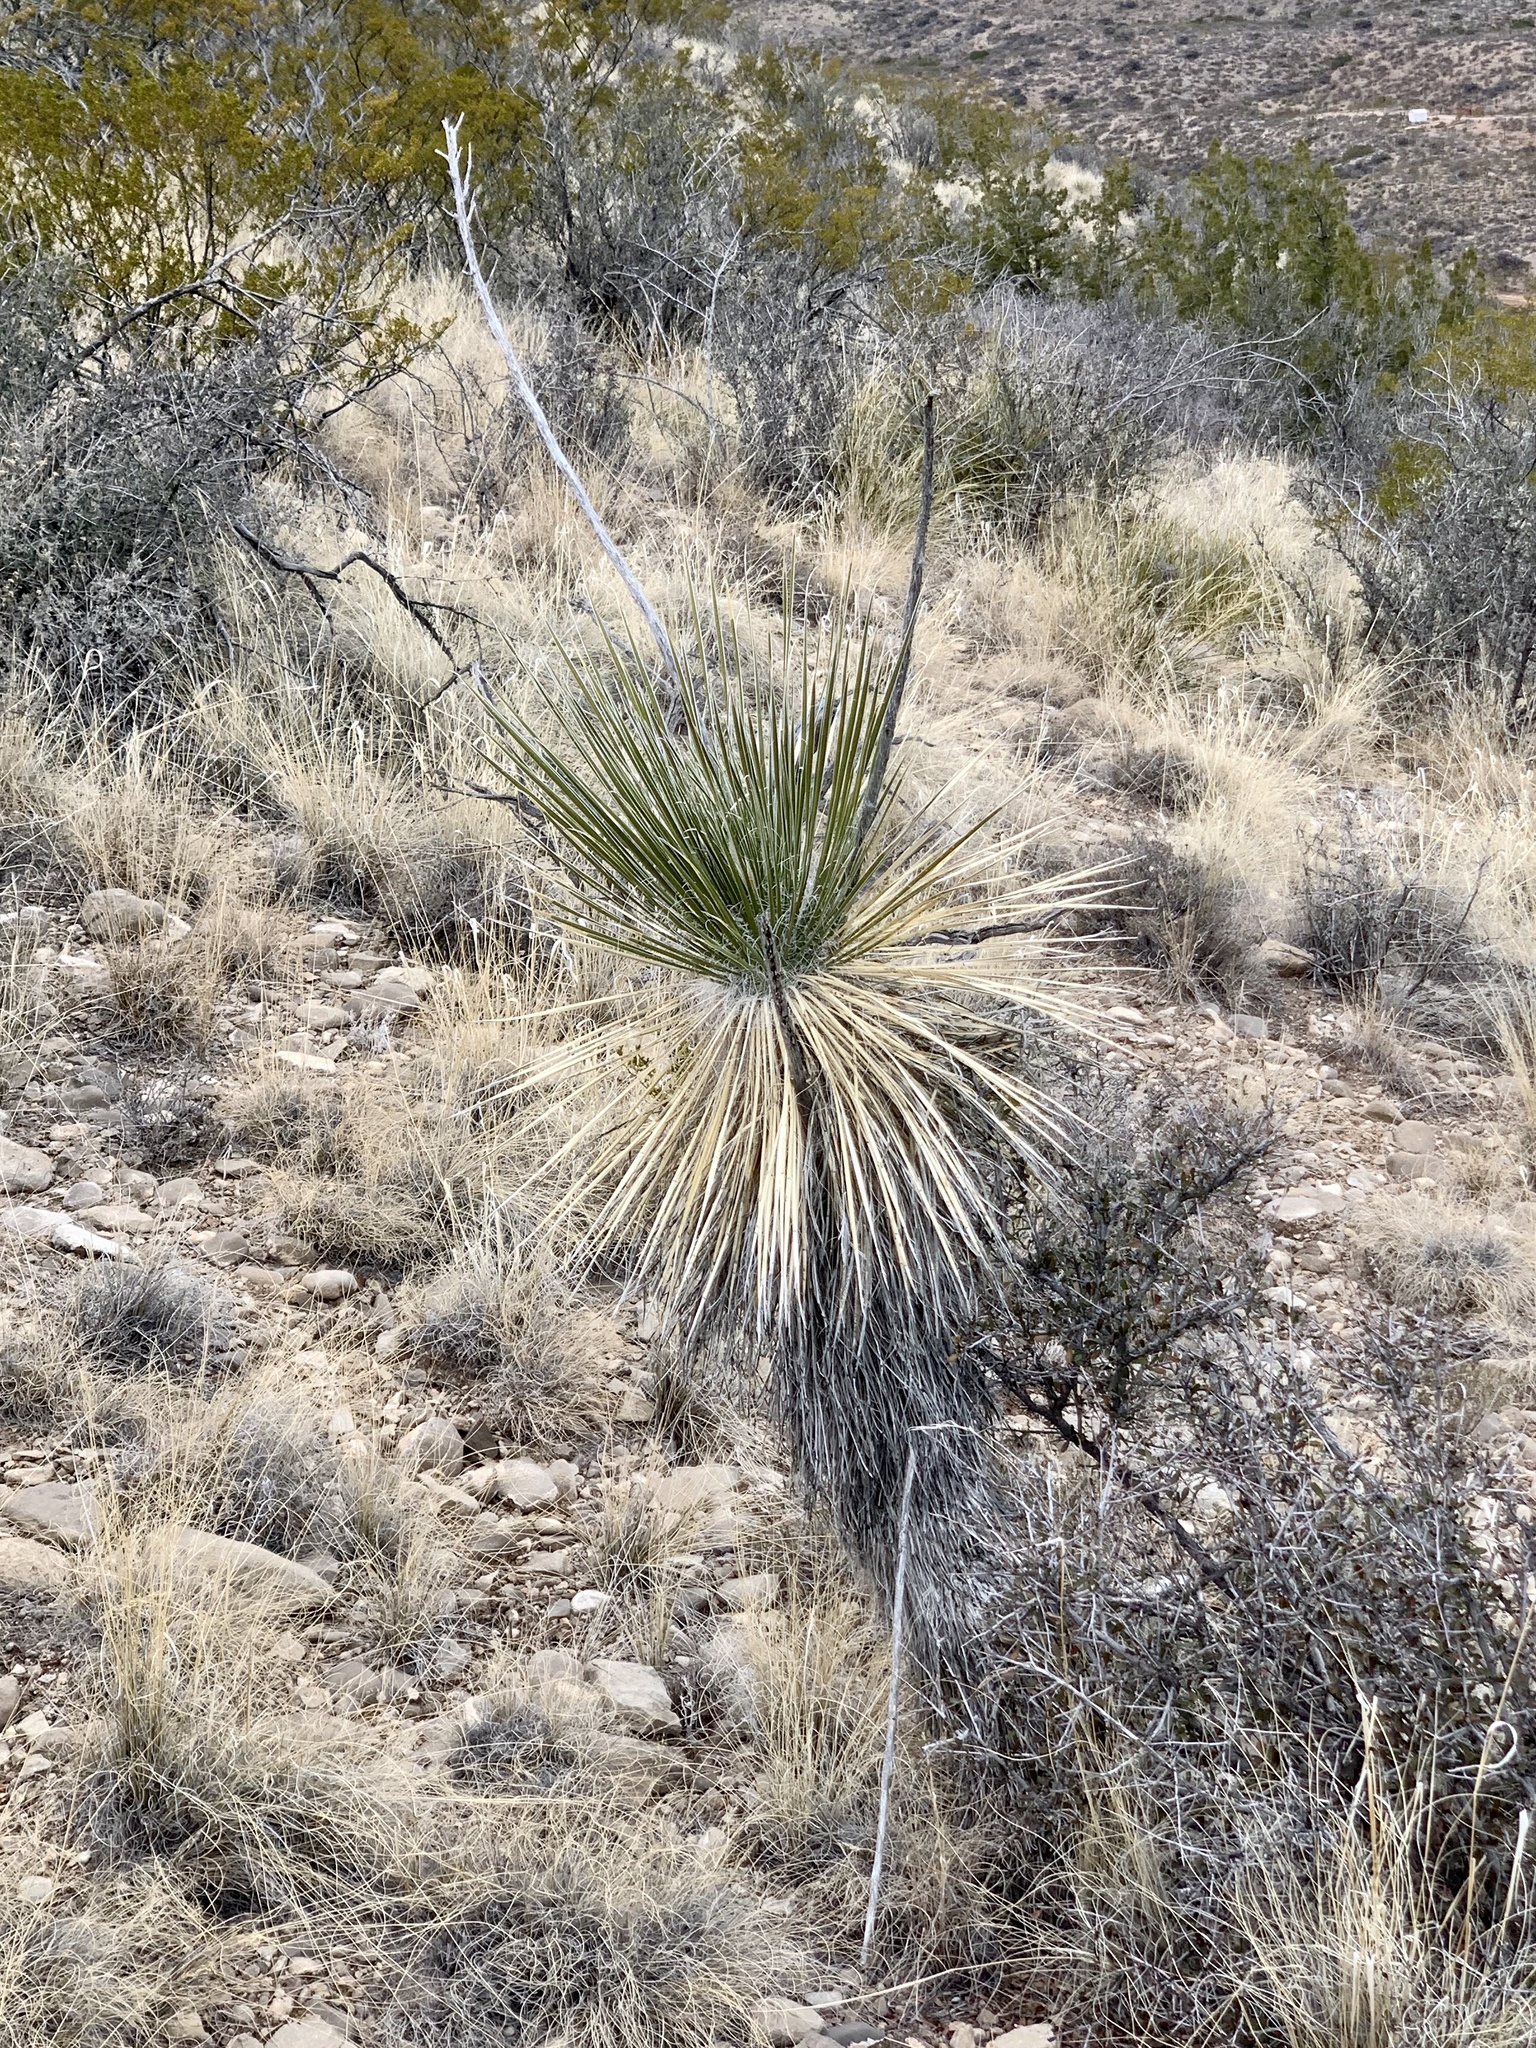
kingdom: Plantae
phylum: Tracheophyta
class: Liliopsida
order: Asparagales
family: Asparagaceae
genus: Yucca
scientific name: Yucca elata
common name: Palmella
